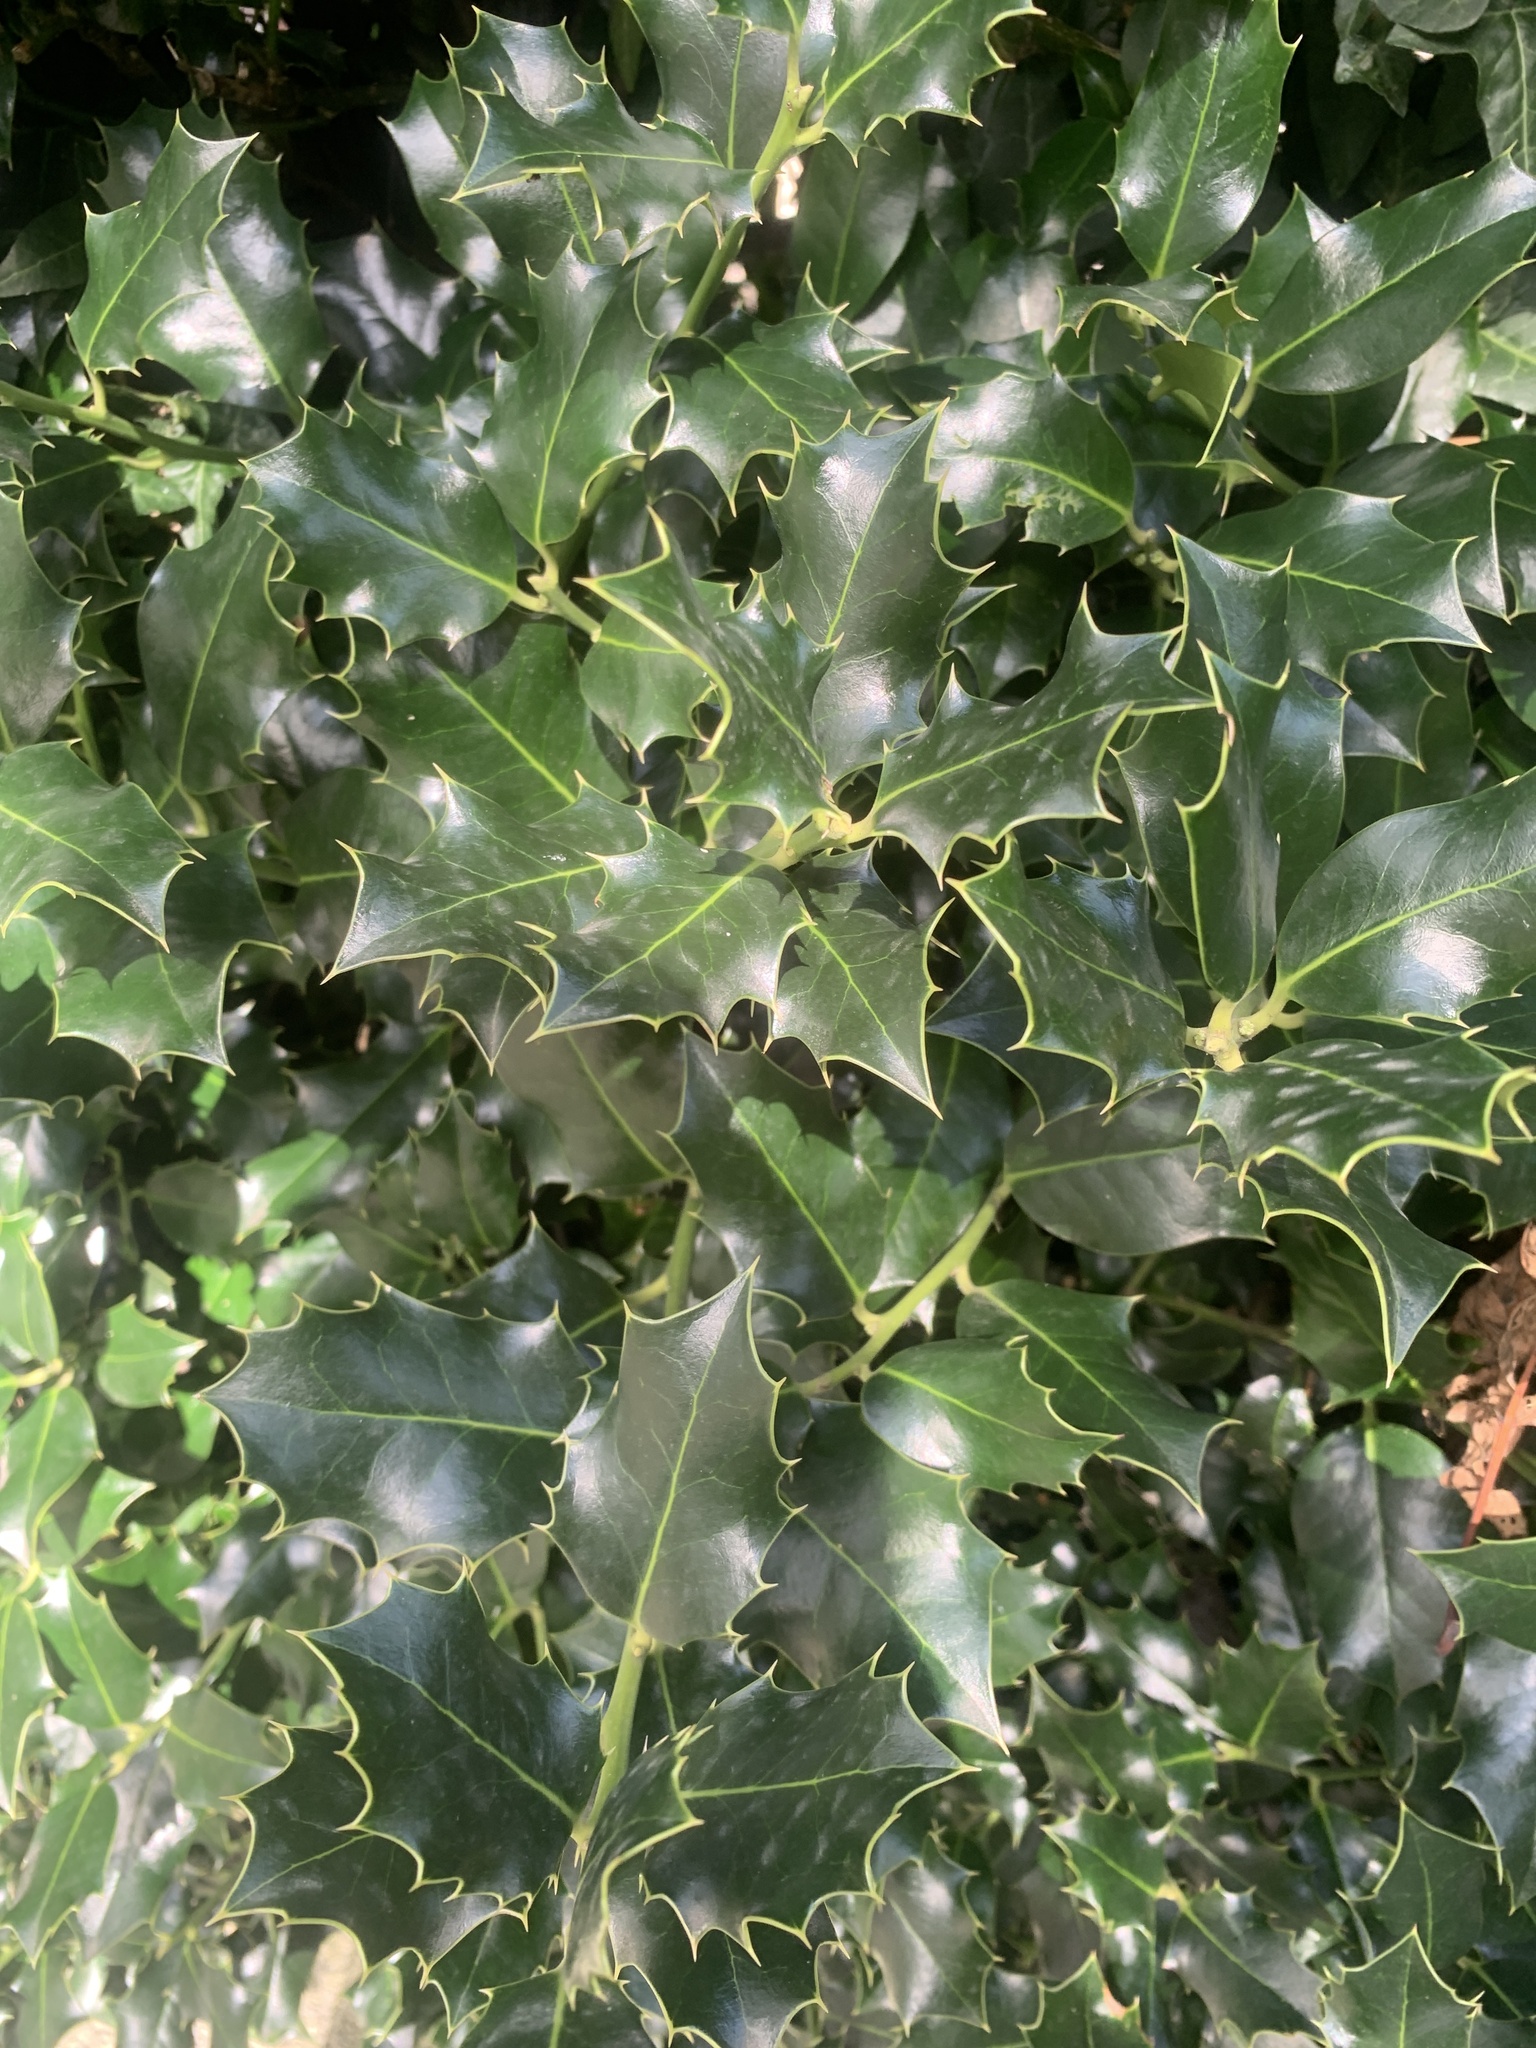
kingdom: Plantae
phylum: Tracheophyta
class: Magnoliopsida
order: Aquifoliales
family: Aquifoliaceae
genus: Ilex
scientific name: Ilex aquifolium
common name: English holly
